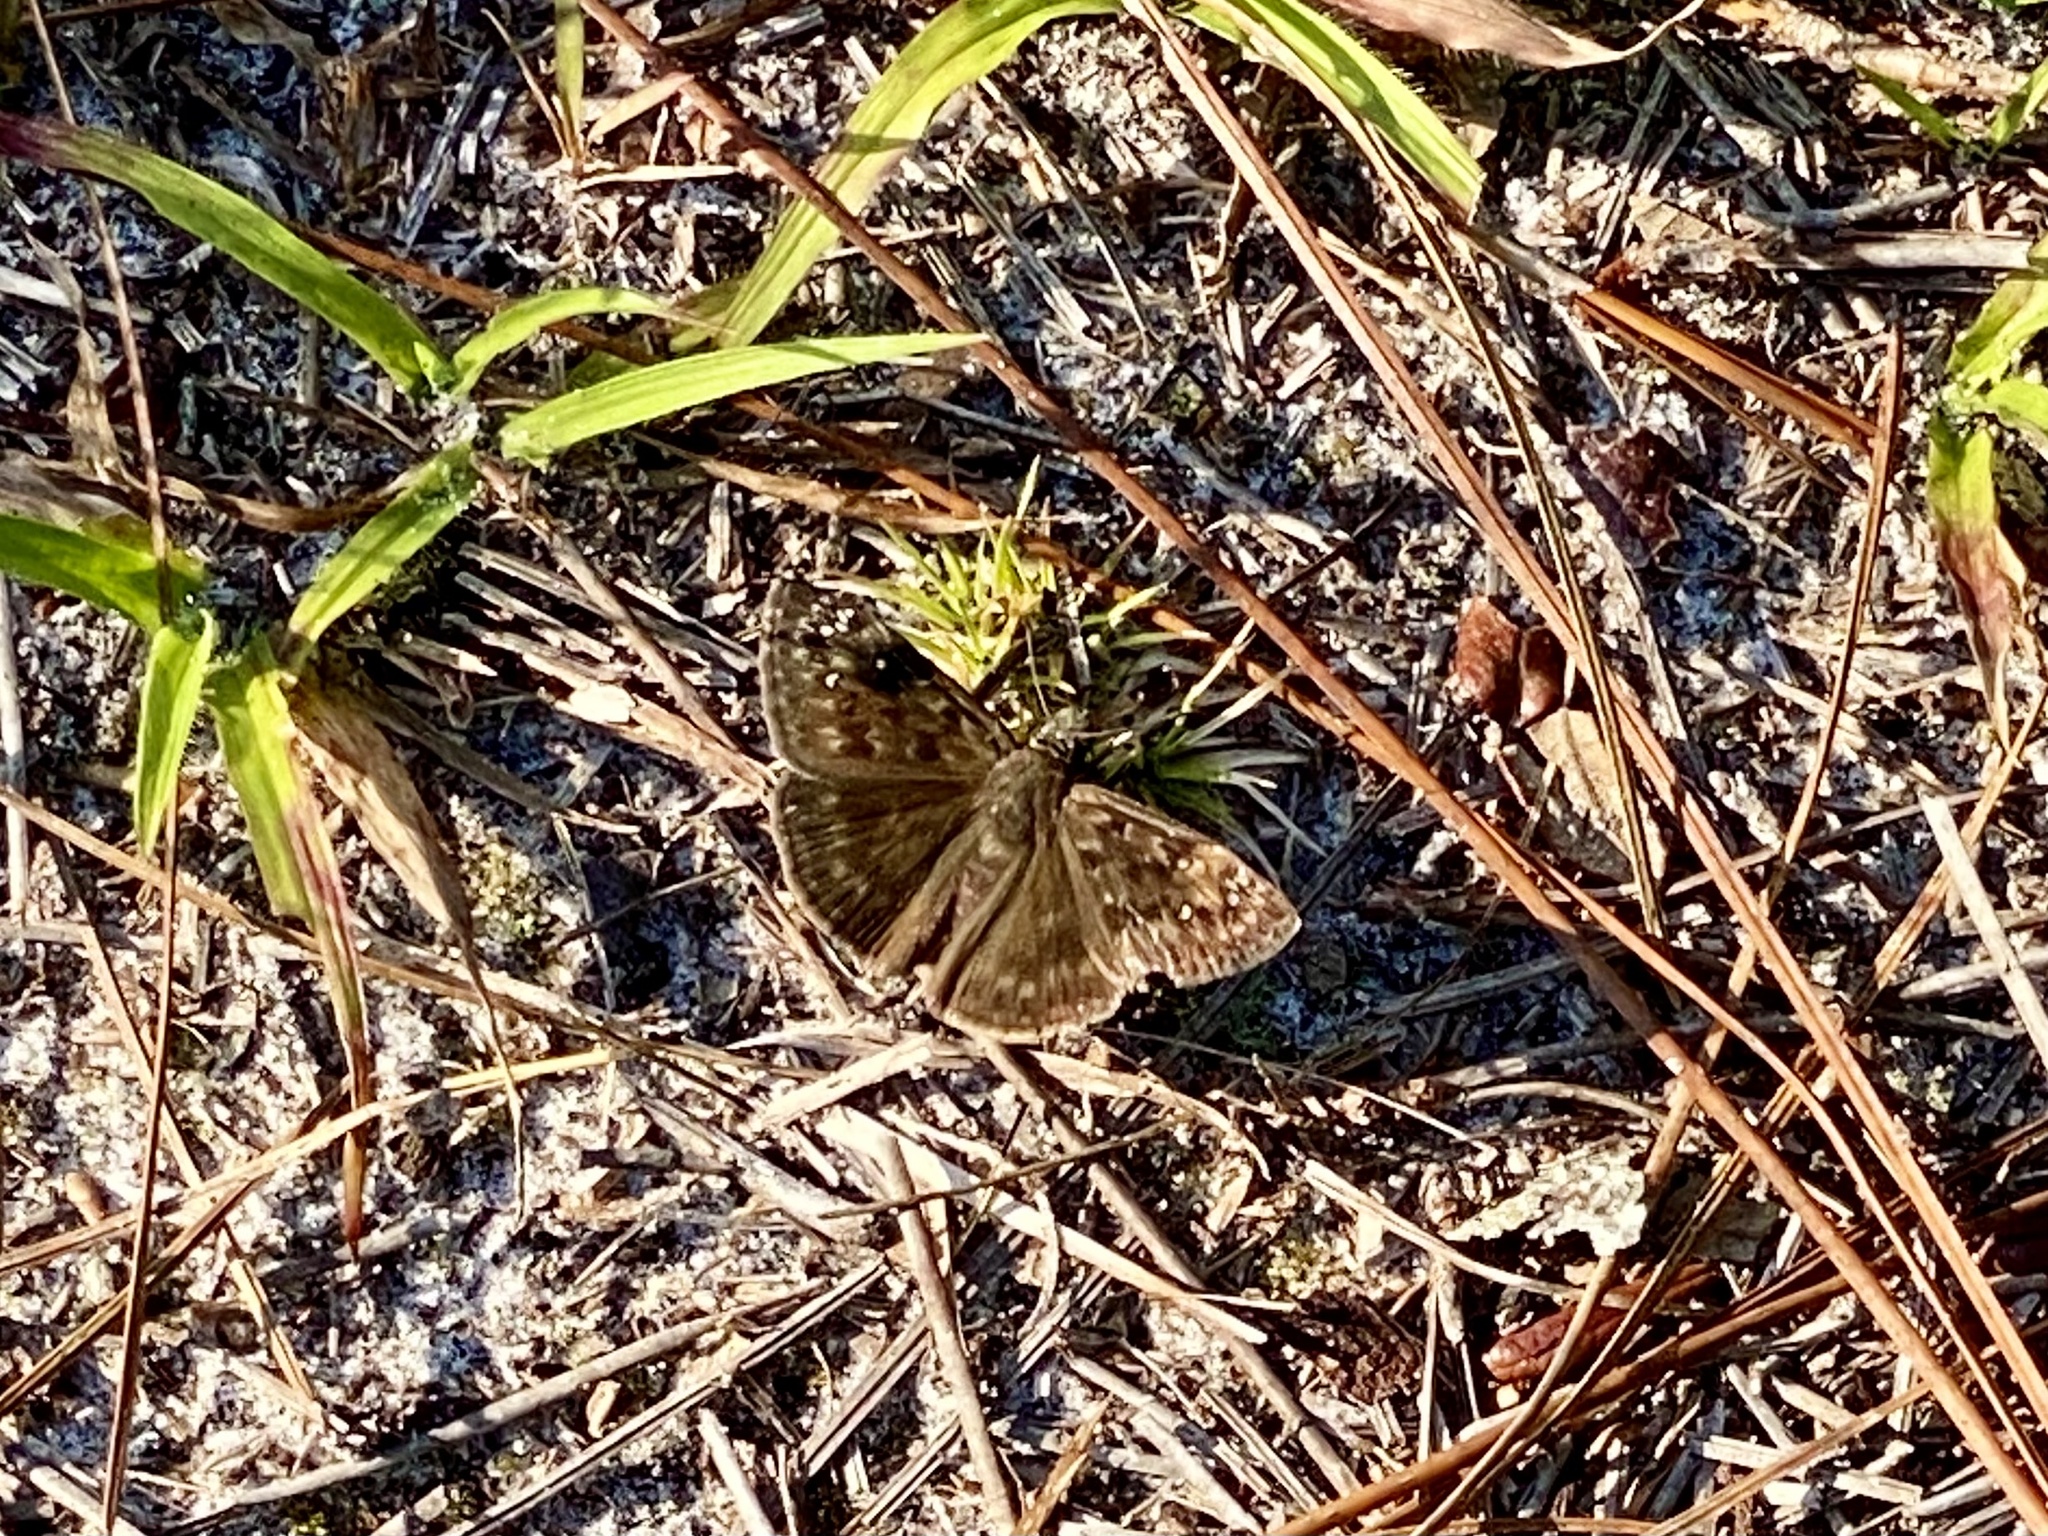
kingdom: Animalia
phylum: Arthropoda
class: Insecta
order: Lepidoptera
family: Hesperiidae
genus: Erynnis
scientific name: Erynnis horatius
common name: Horace's duskywing
